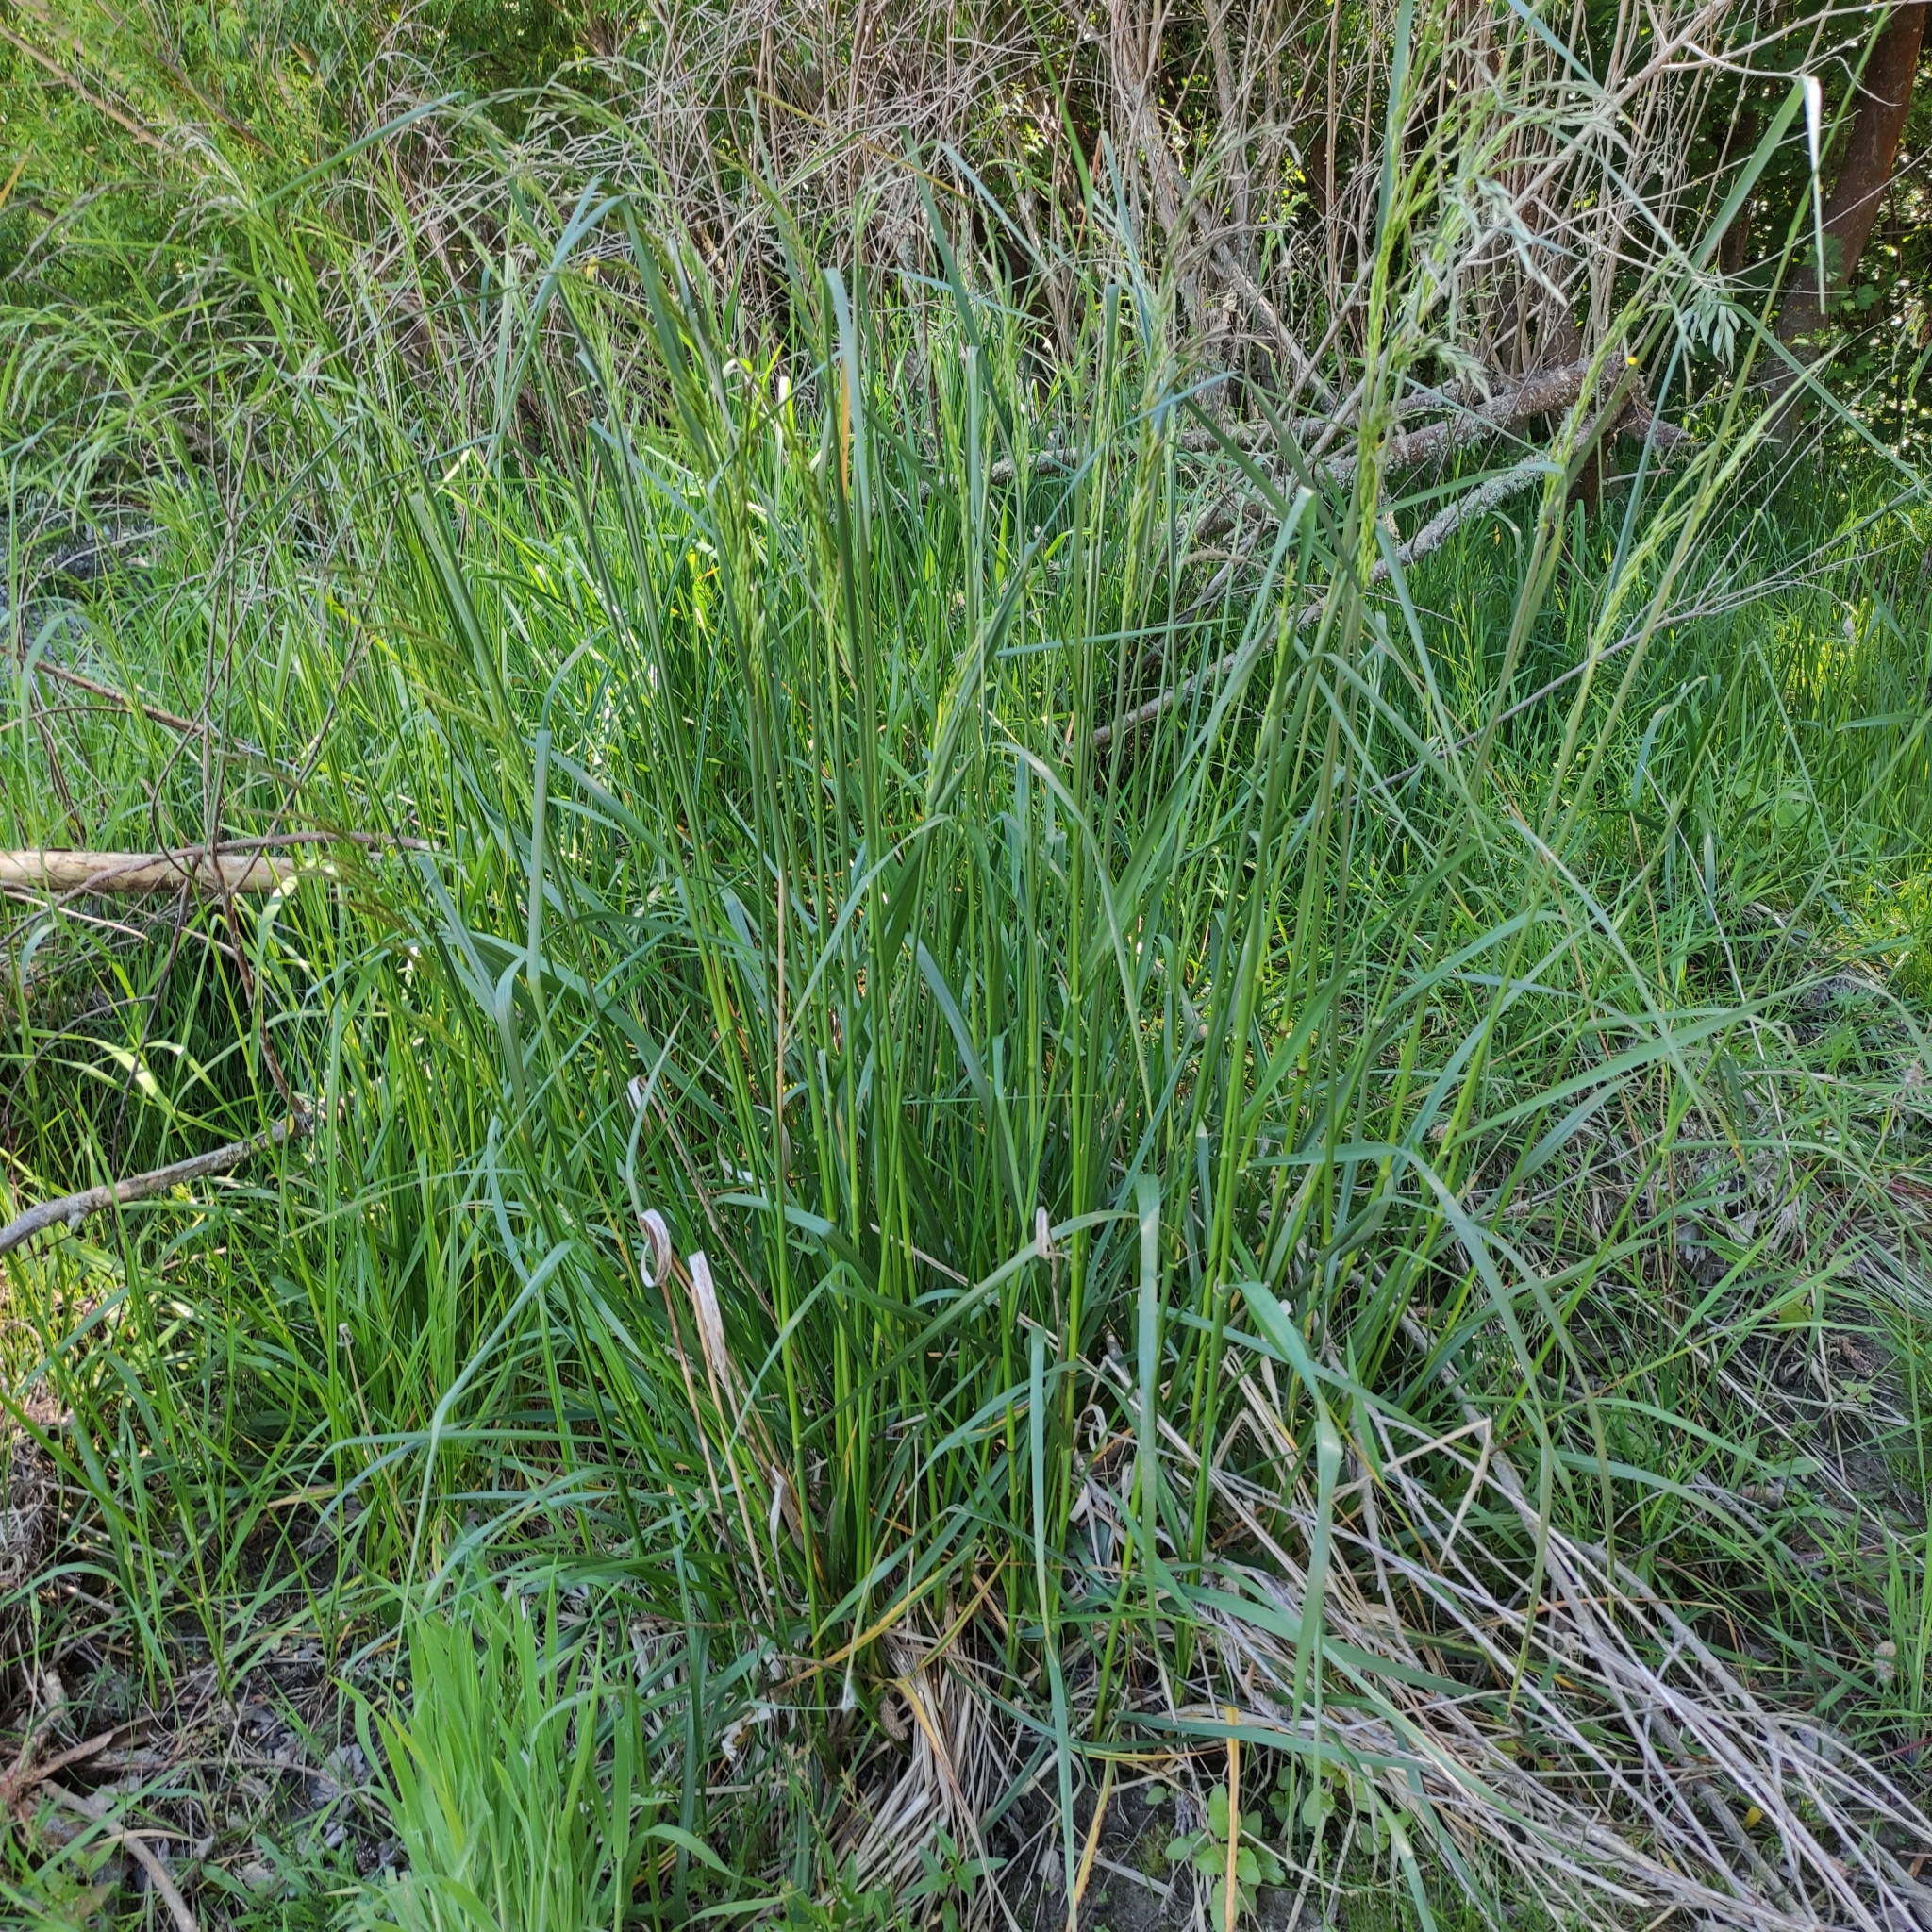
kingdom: Plantae
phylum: Tracheophyta
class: Liliopsida
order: Poales
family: Poaceae
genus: Lolium
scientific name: Lolium arundinaceum
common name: Reed fescue
